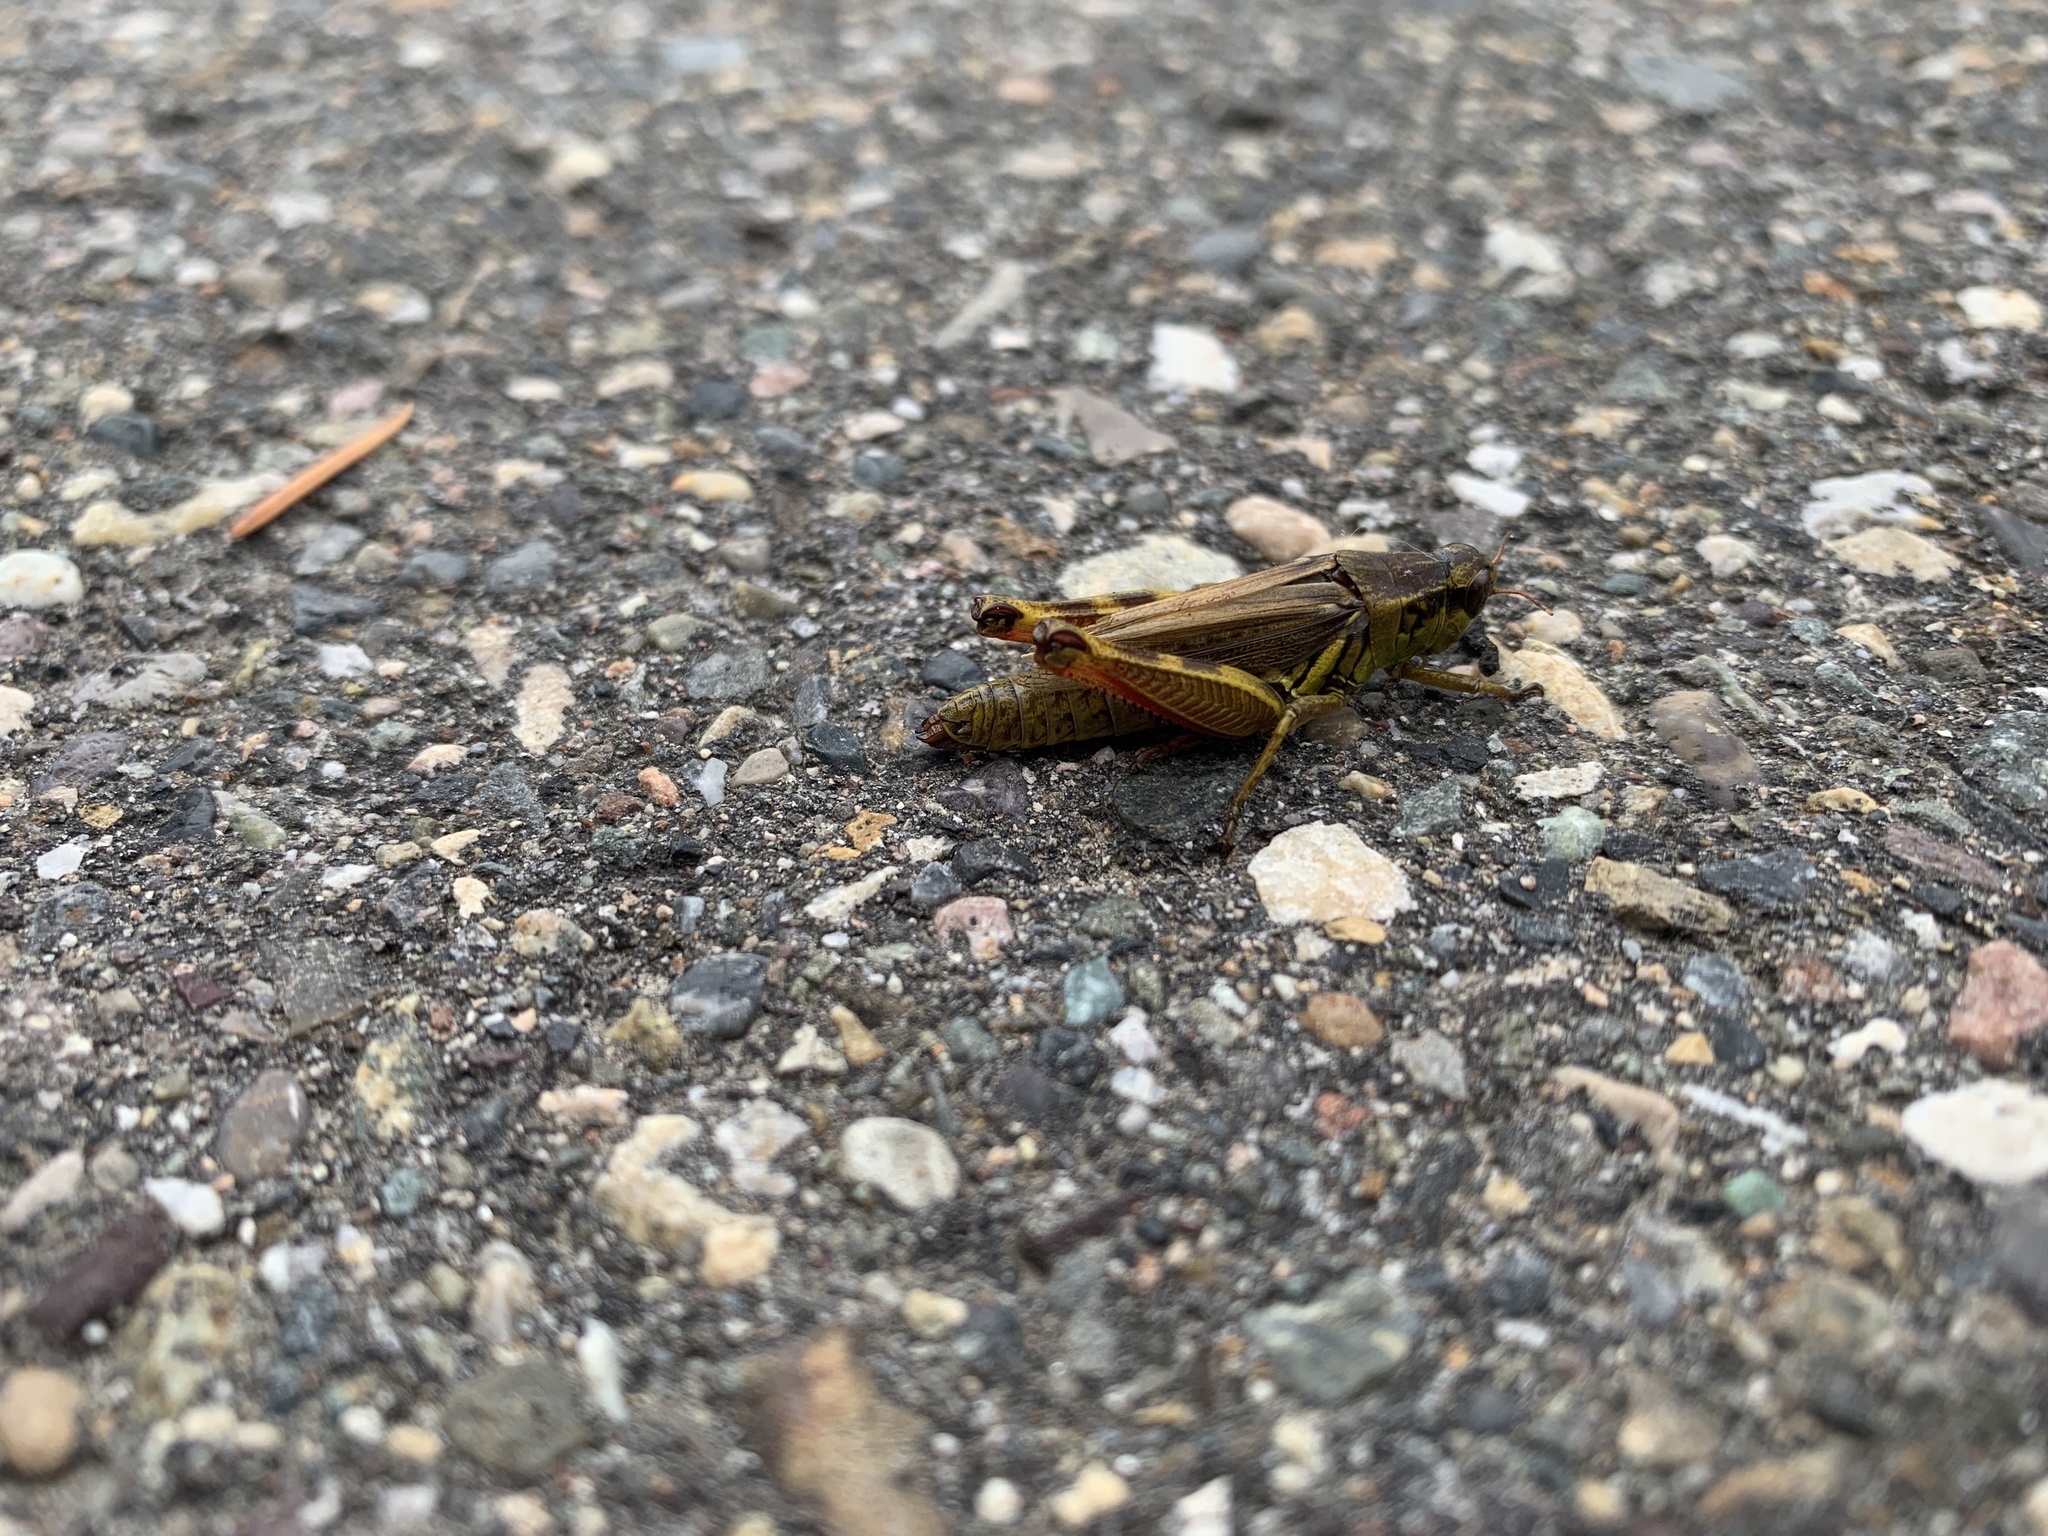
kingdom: Animalia
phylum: Arthropoda
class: Insecta
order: Orthoptera
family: Acrididae
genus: Melanoplus
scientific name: Melanoplus borealis
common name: Northern grasshopper
